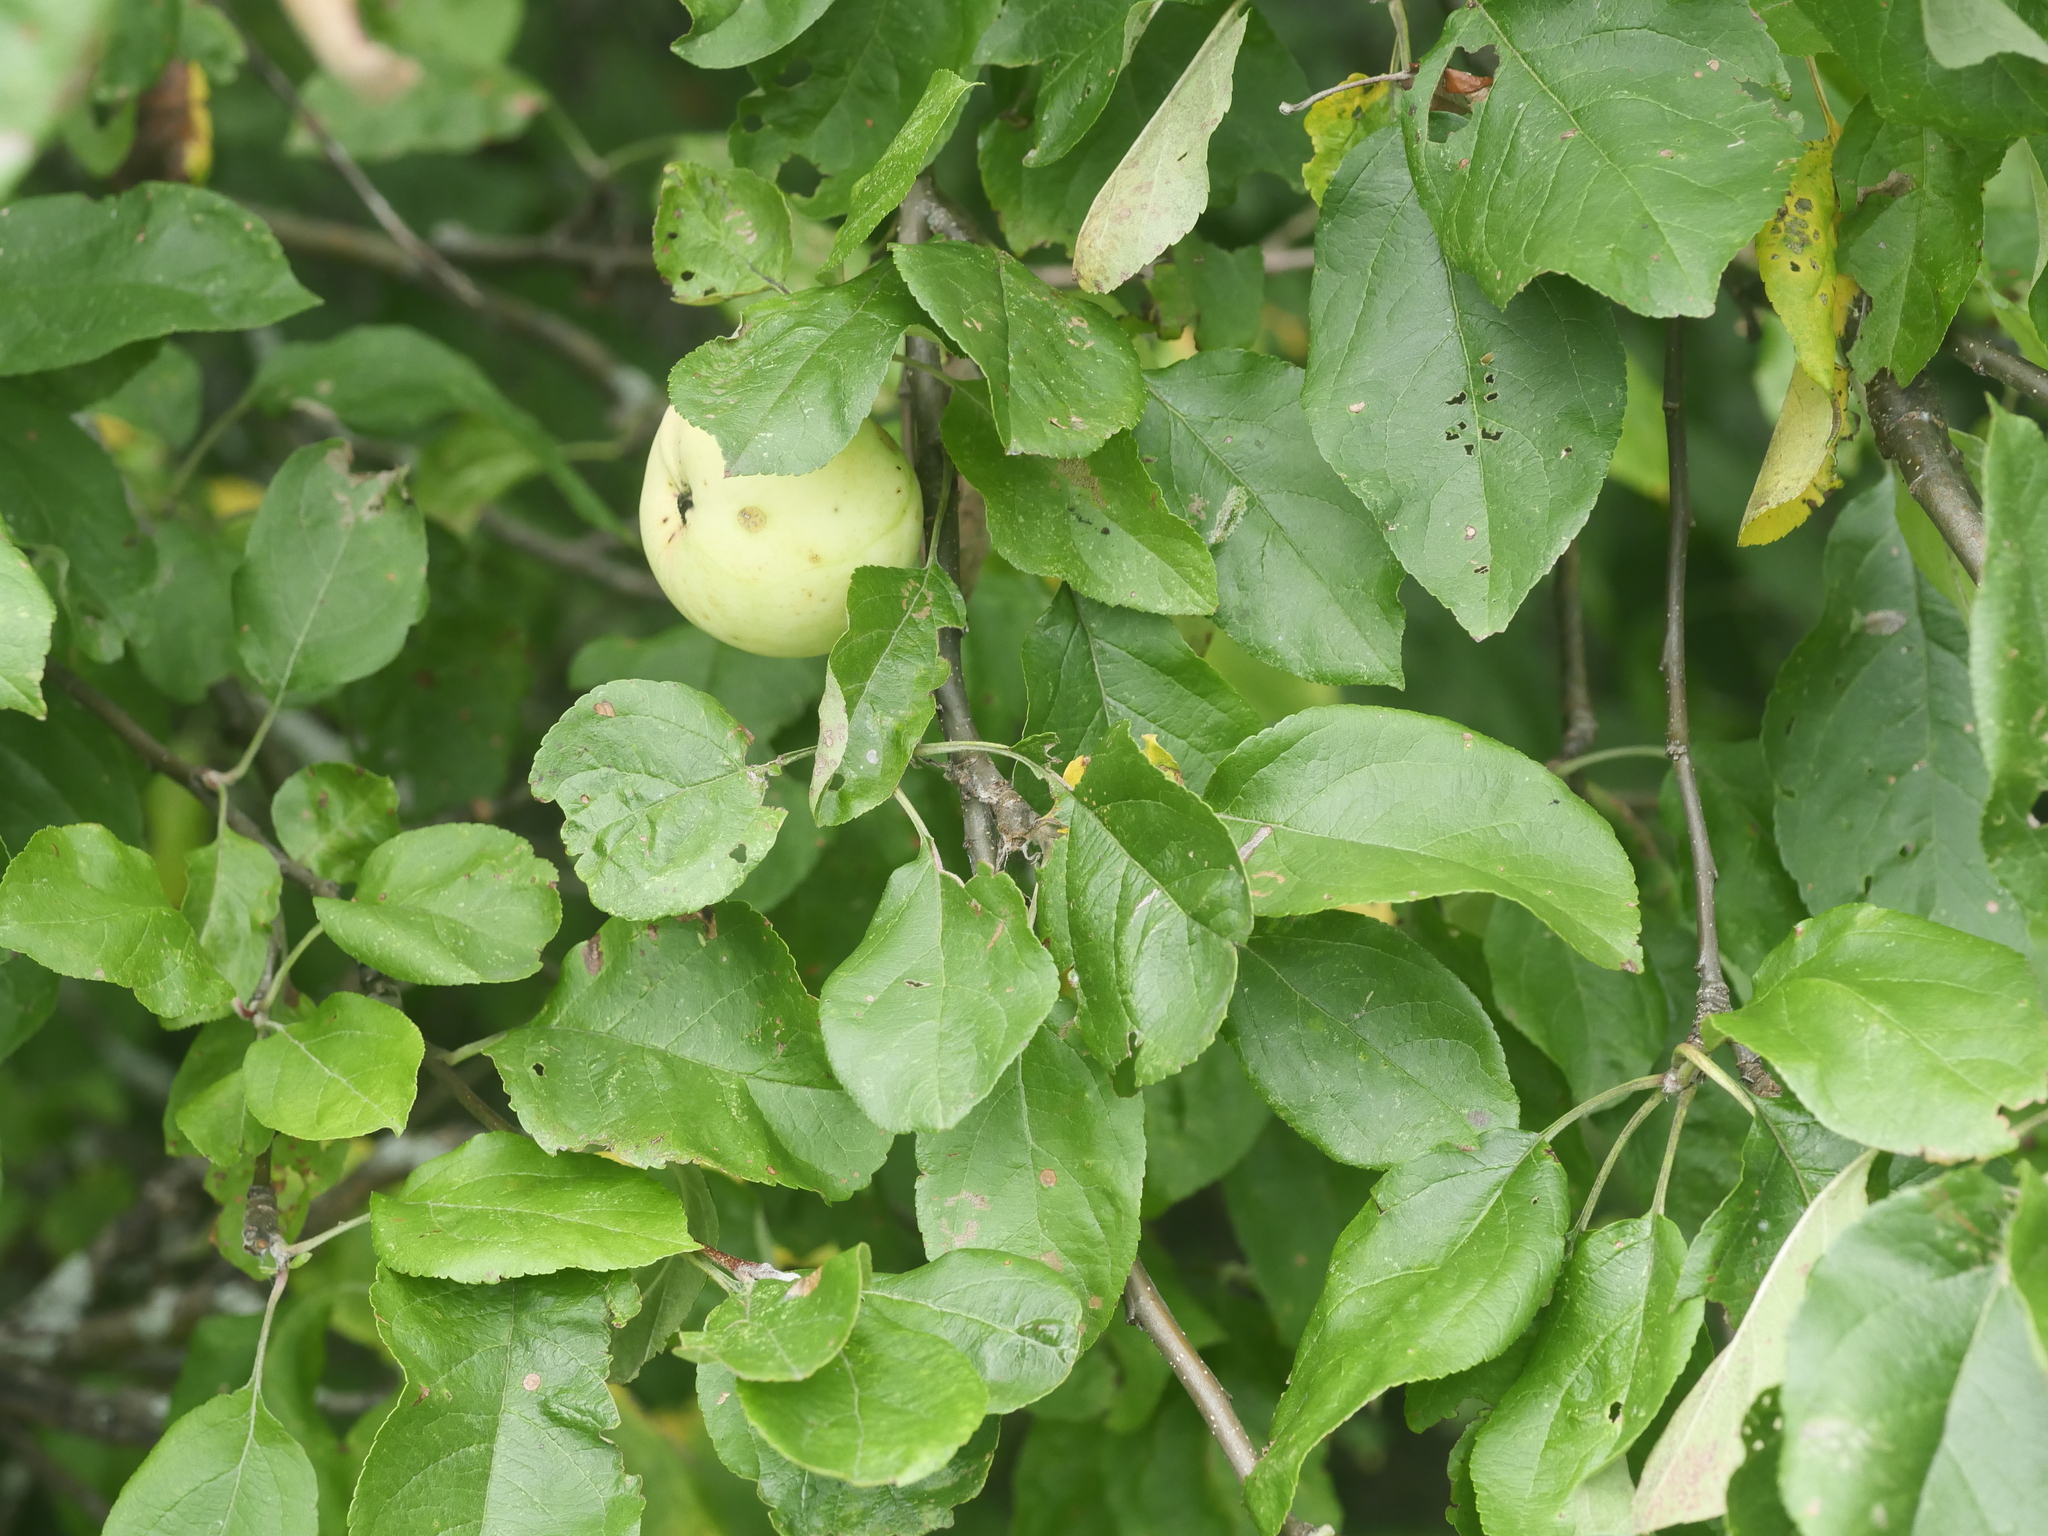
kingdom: Plantae
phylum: Tracheophyta
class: Magnoliopsida
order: Rosales
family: Rosaceae
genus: Malus
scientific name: Malus domestica
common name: Apple
